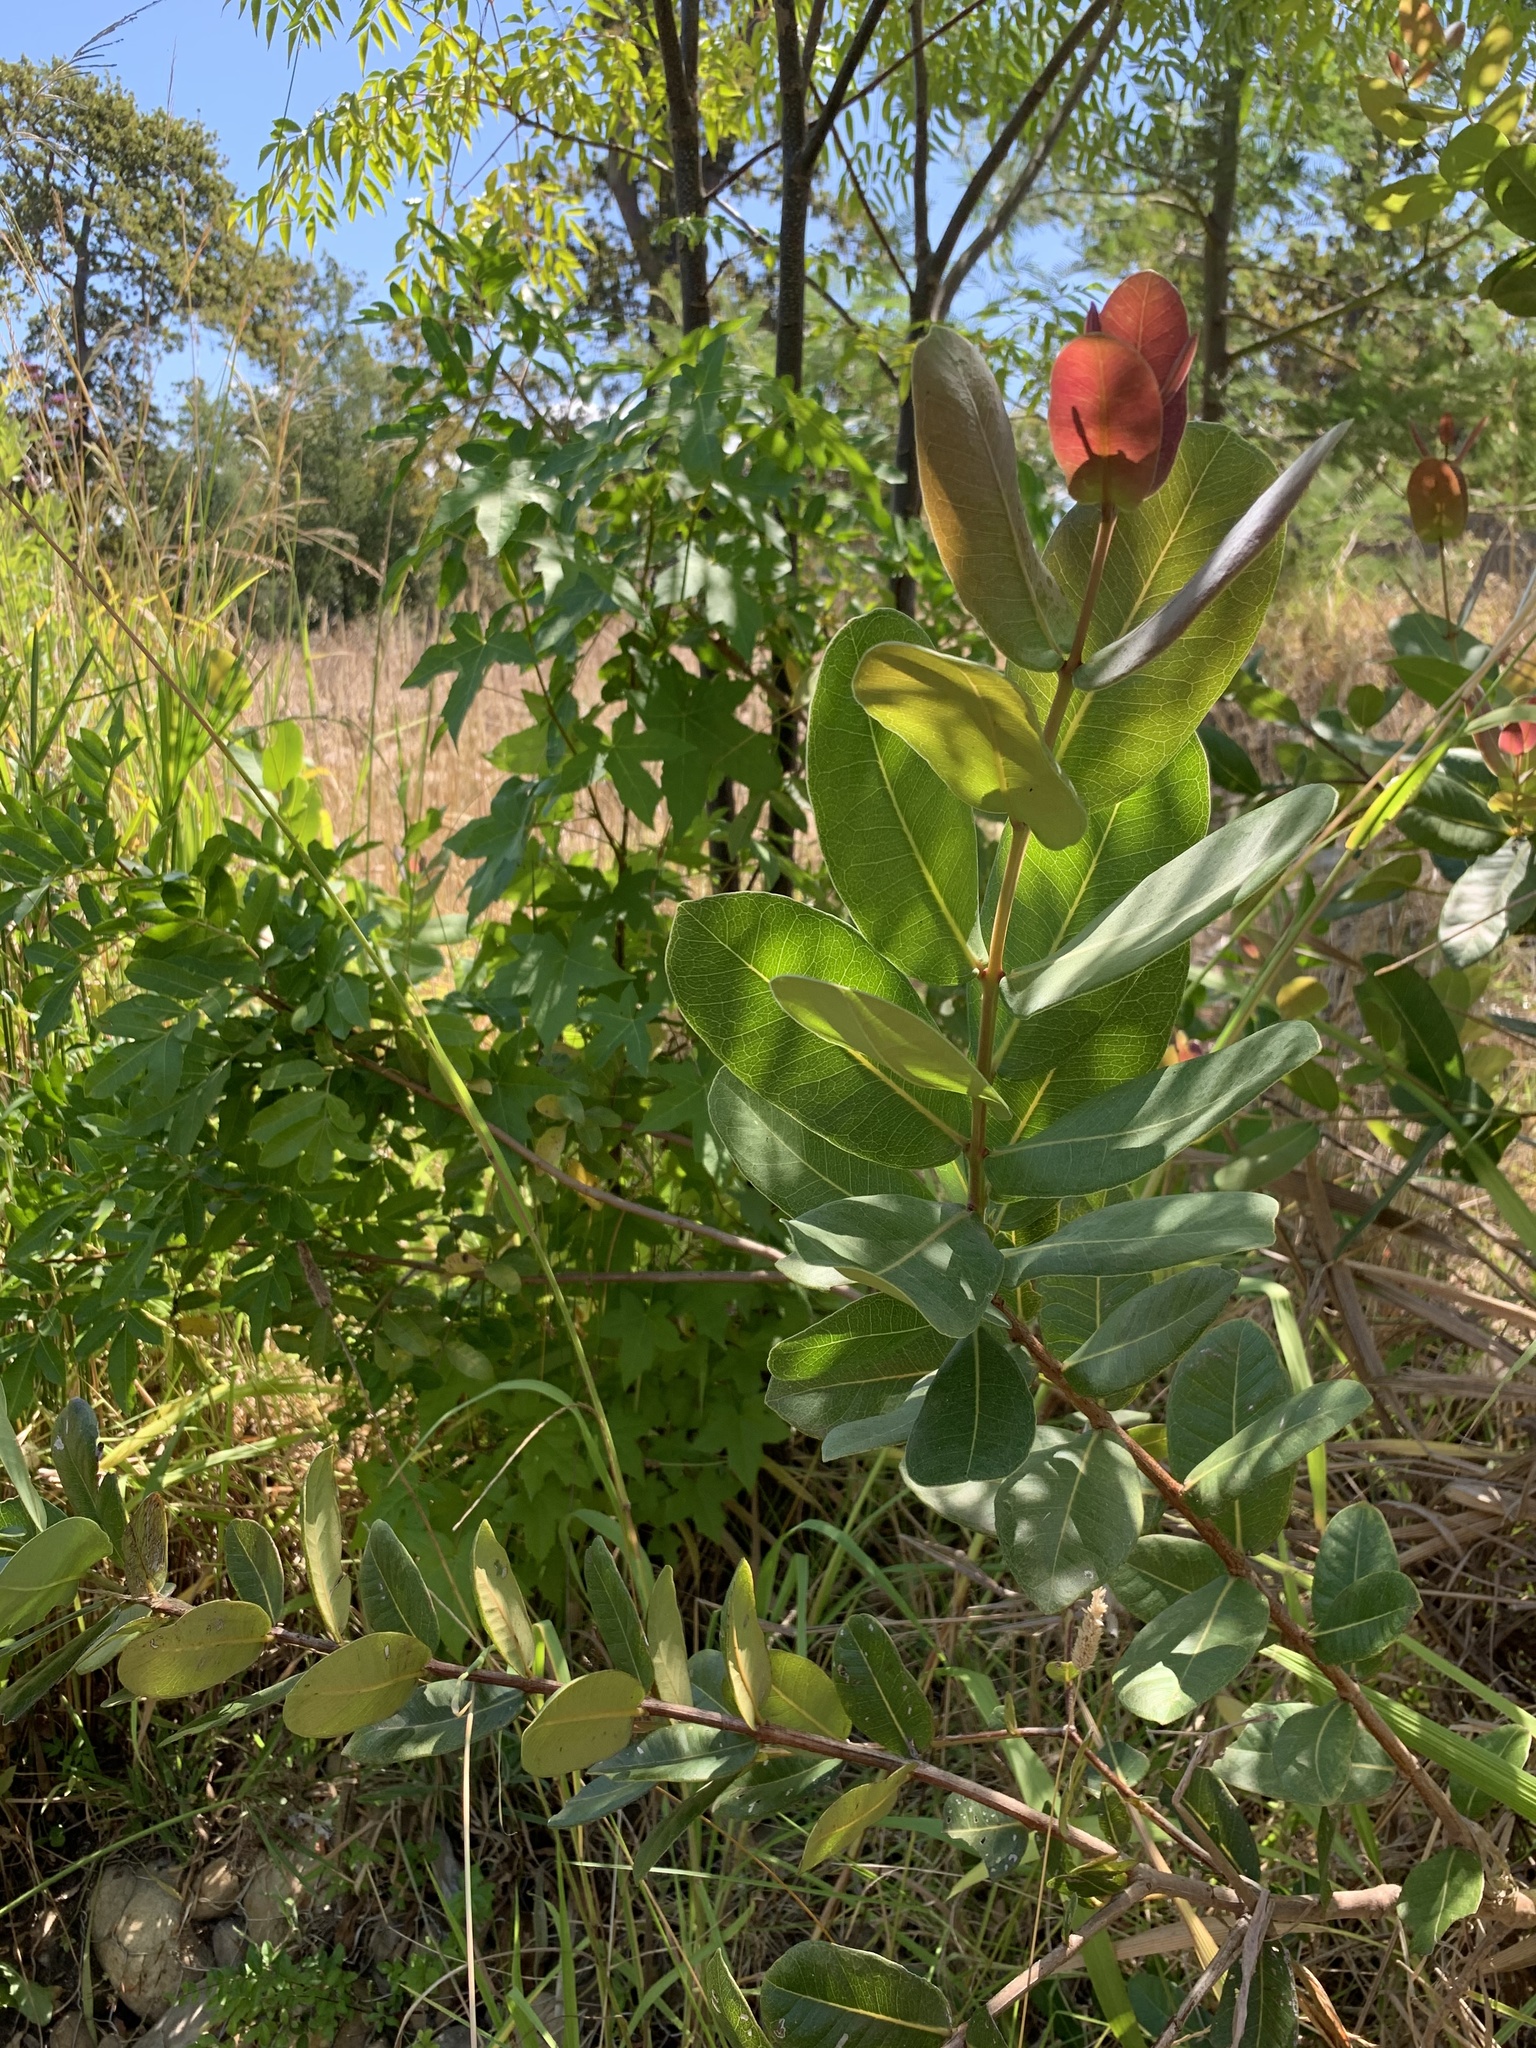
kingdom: Plantae
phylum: Tracheophyta
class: Magnoliopsida
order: Myrtales
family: Myrtaceae
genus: Syzygium
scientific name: Syzygium cordatum
